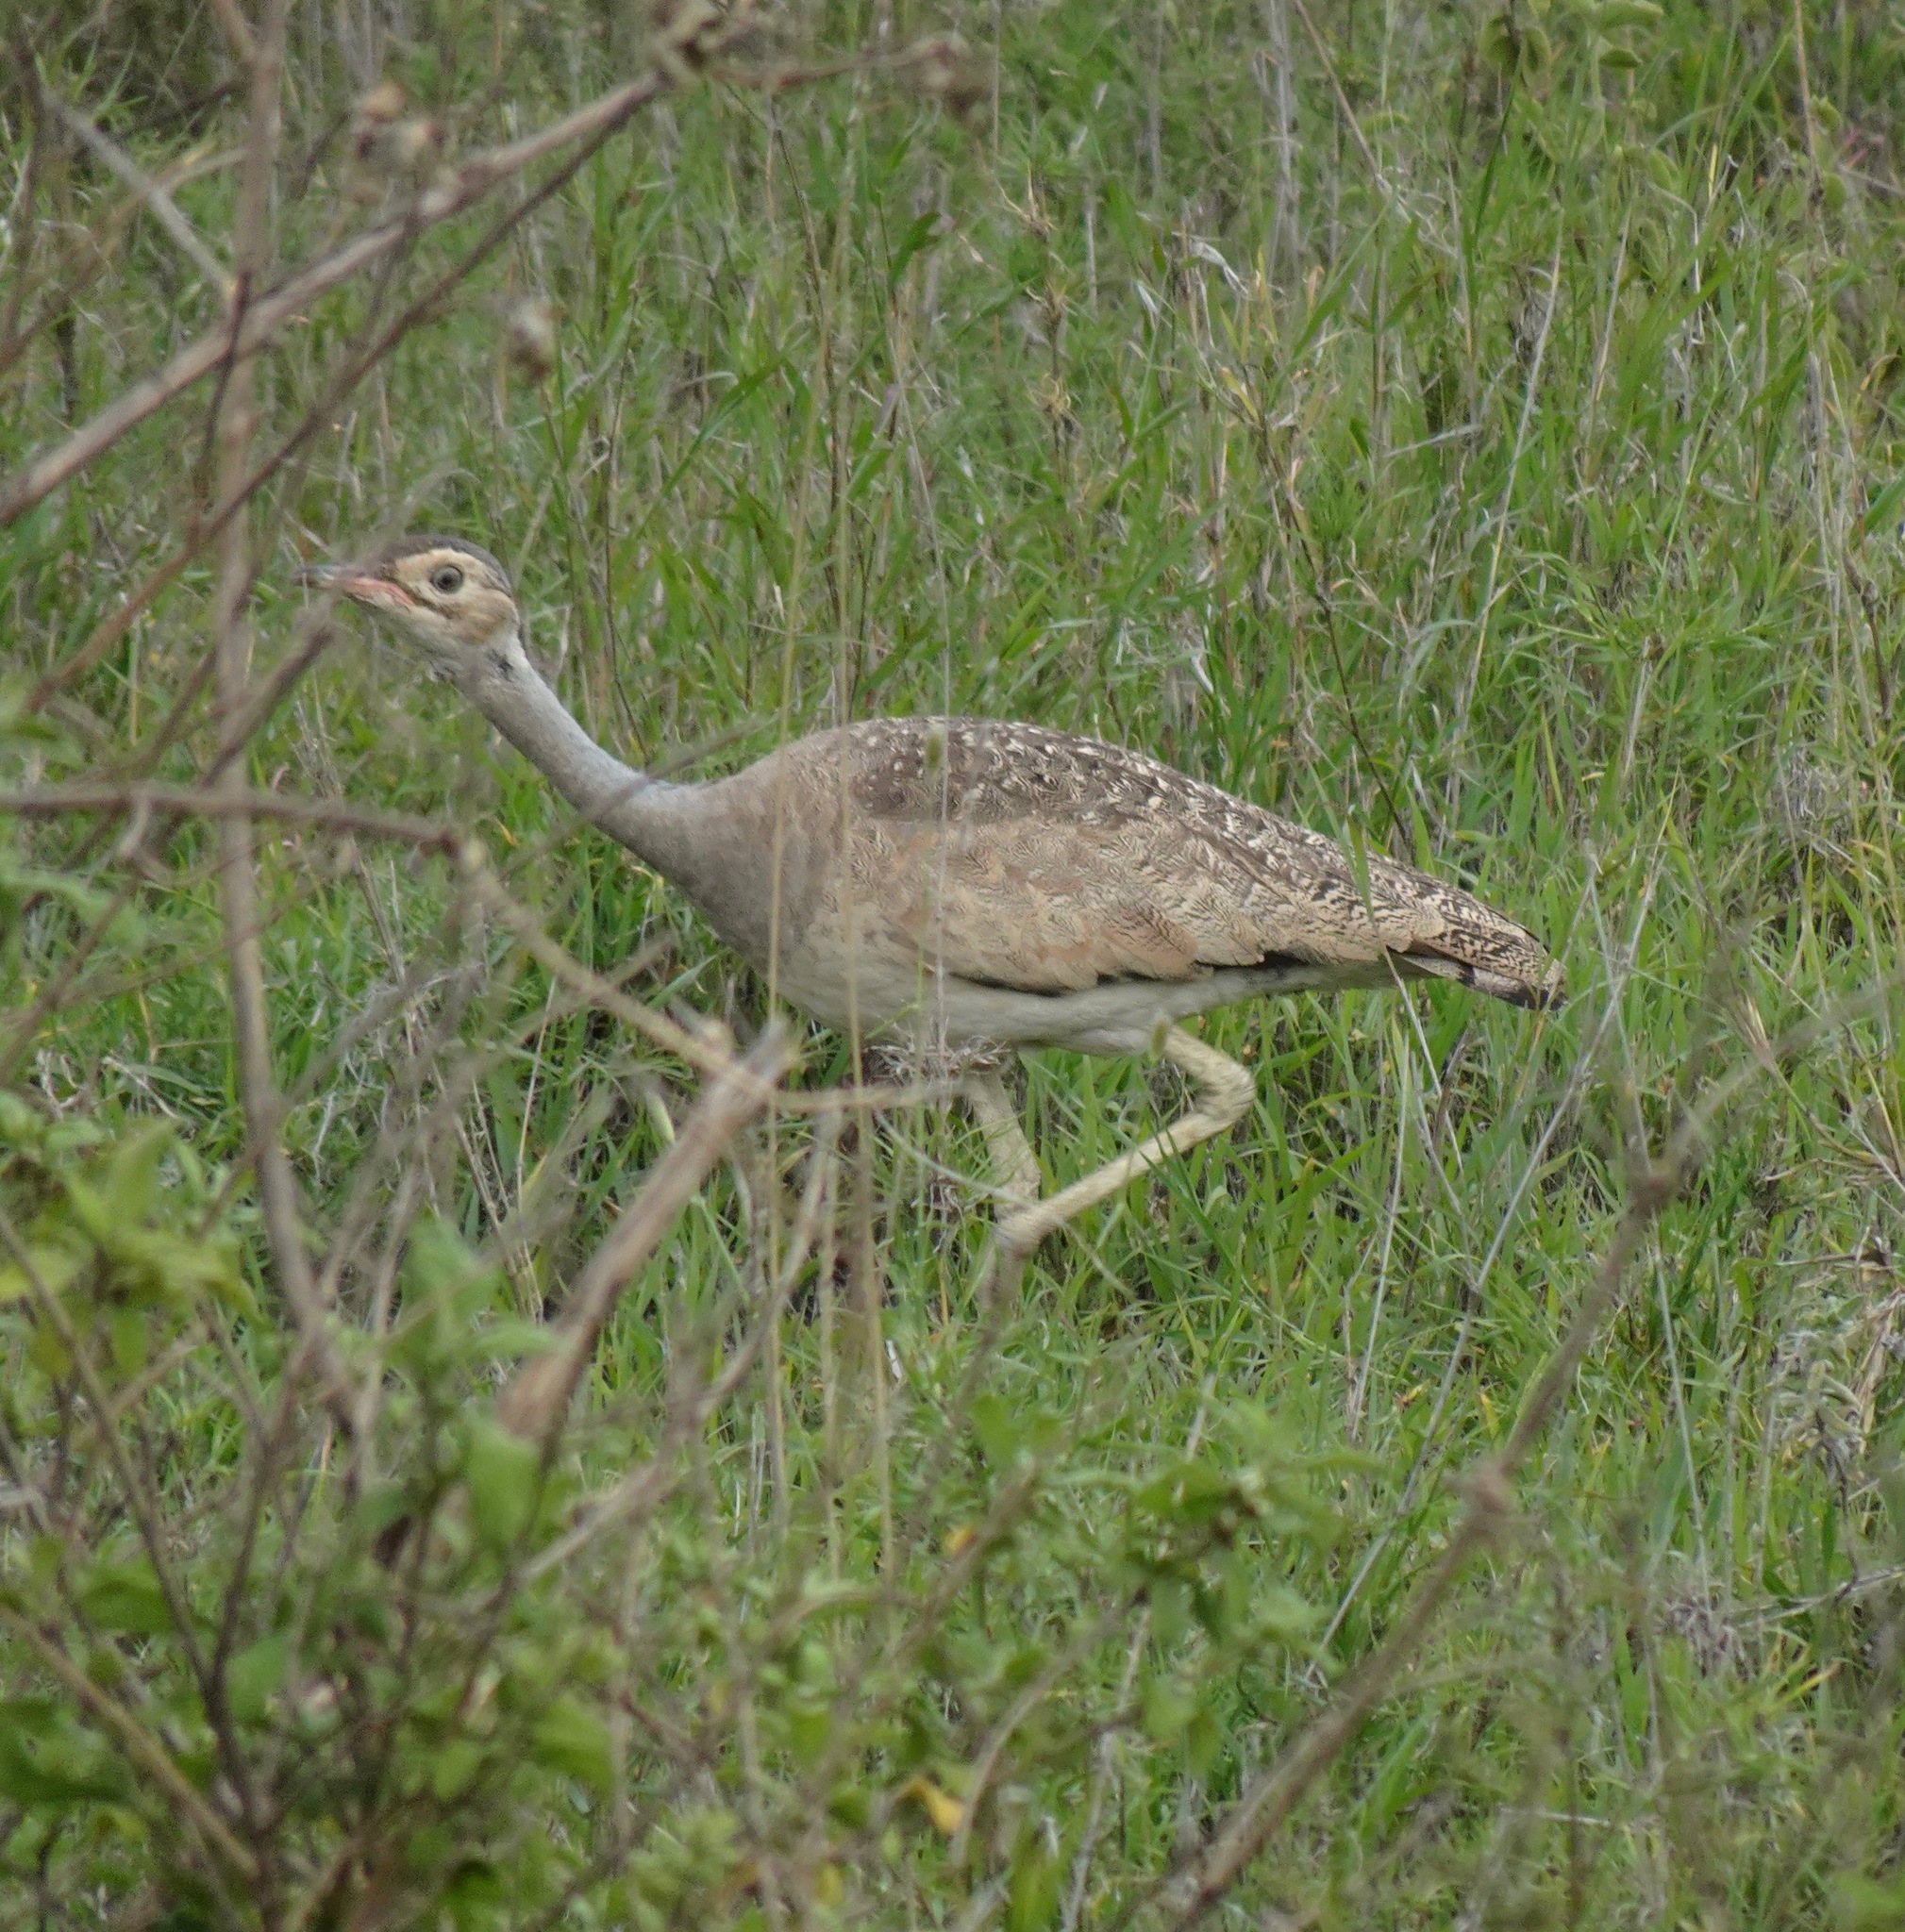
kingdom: Animalia
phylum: Chordata
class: Aves
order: Otidiformes
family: Otididae
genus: Eupodotis
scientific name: Eupodotis senegalensis
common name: White-bellied bustard
